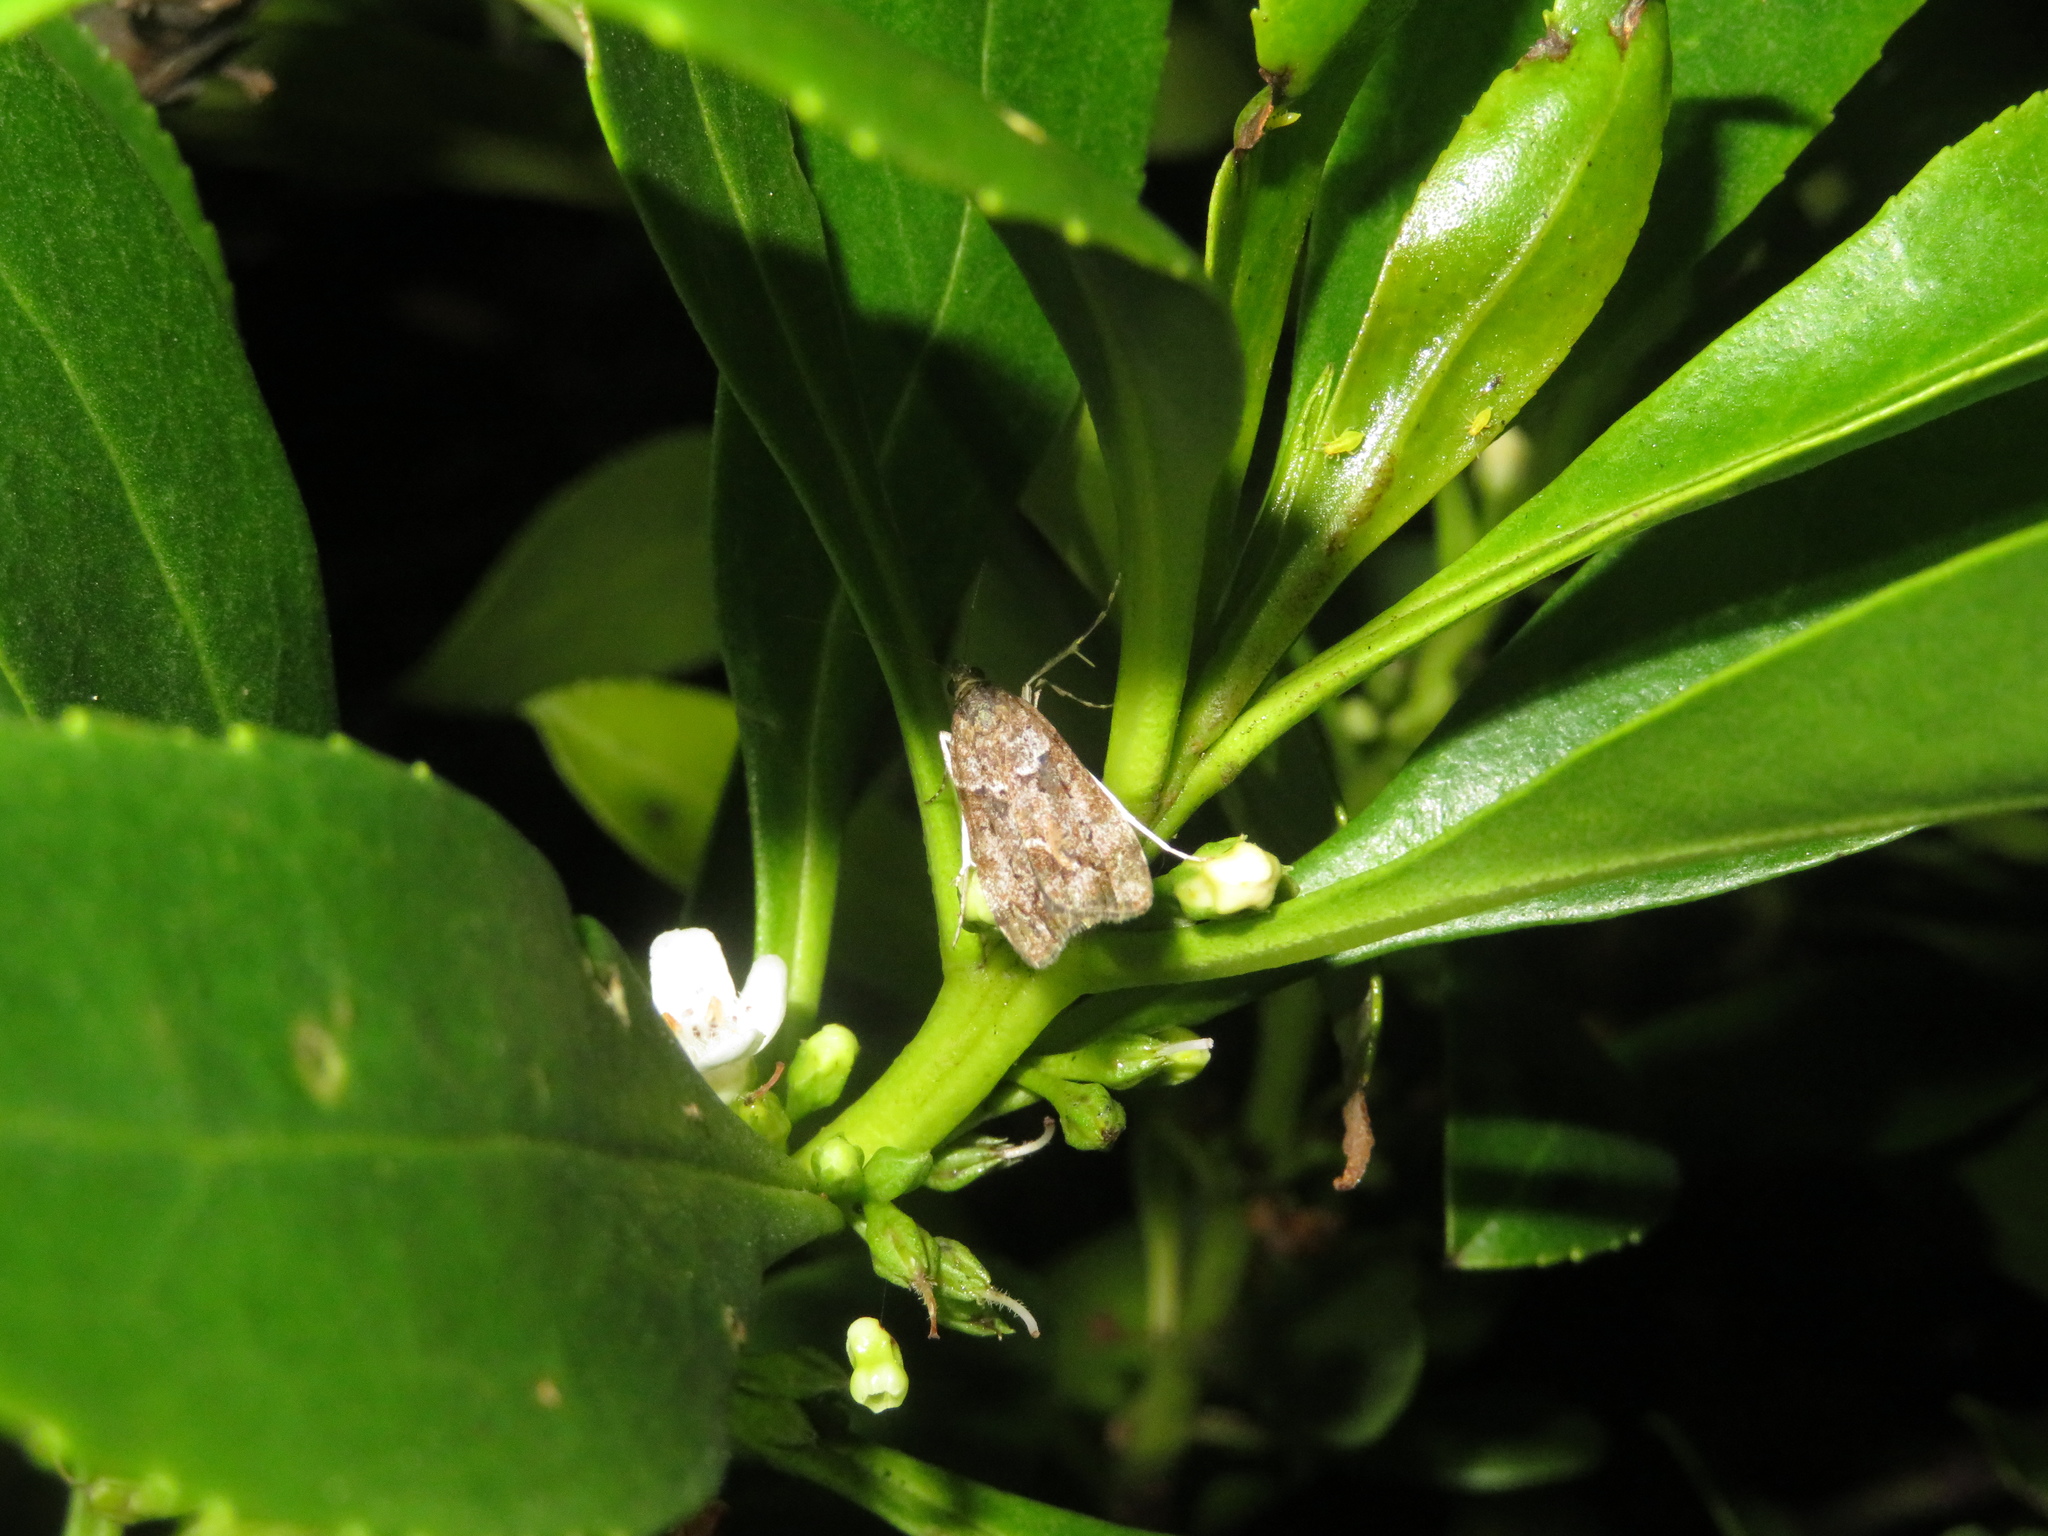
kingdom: Animalia
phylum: Arthropoda
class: Insecta
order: Lepidoptera
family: Crambidae
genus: Eudonia
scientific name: Eudonia submarginalis
